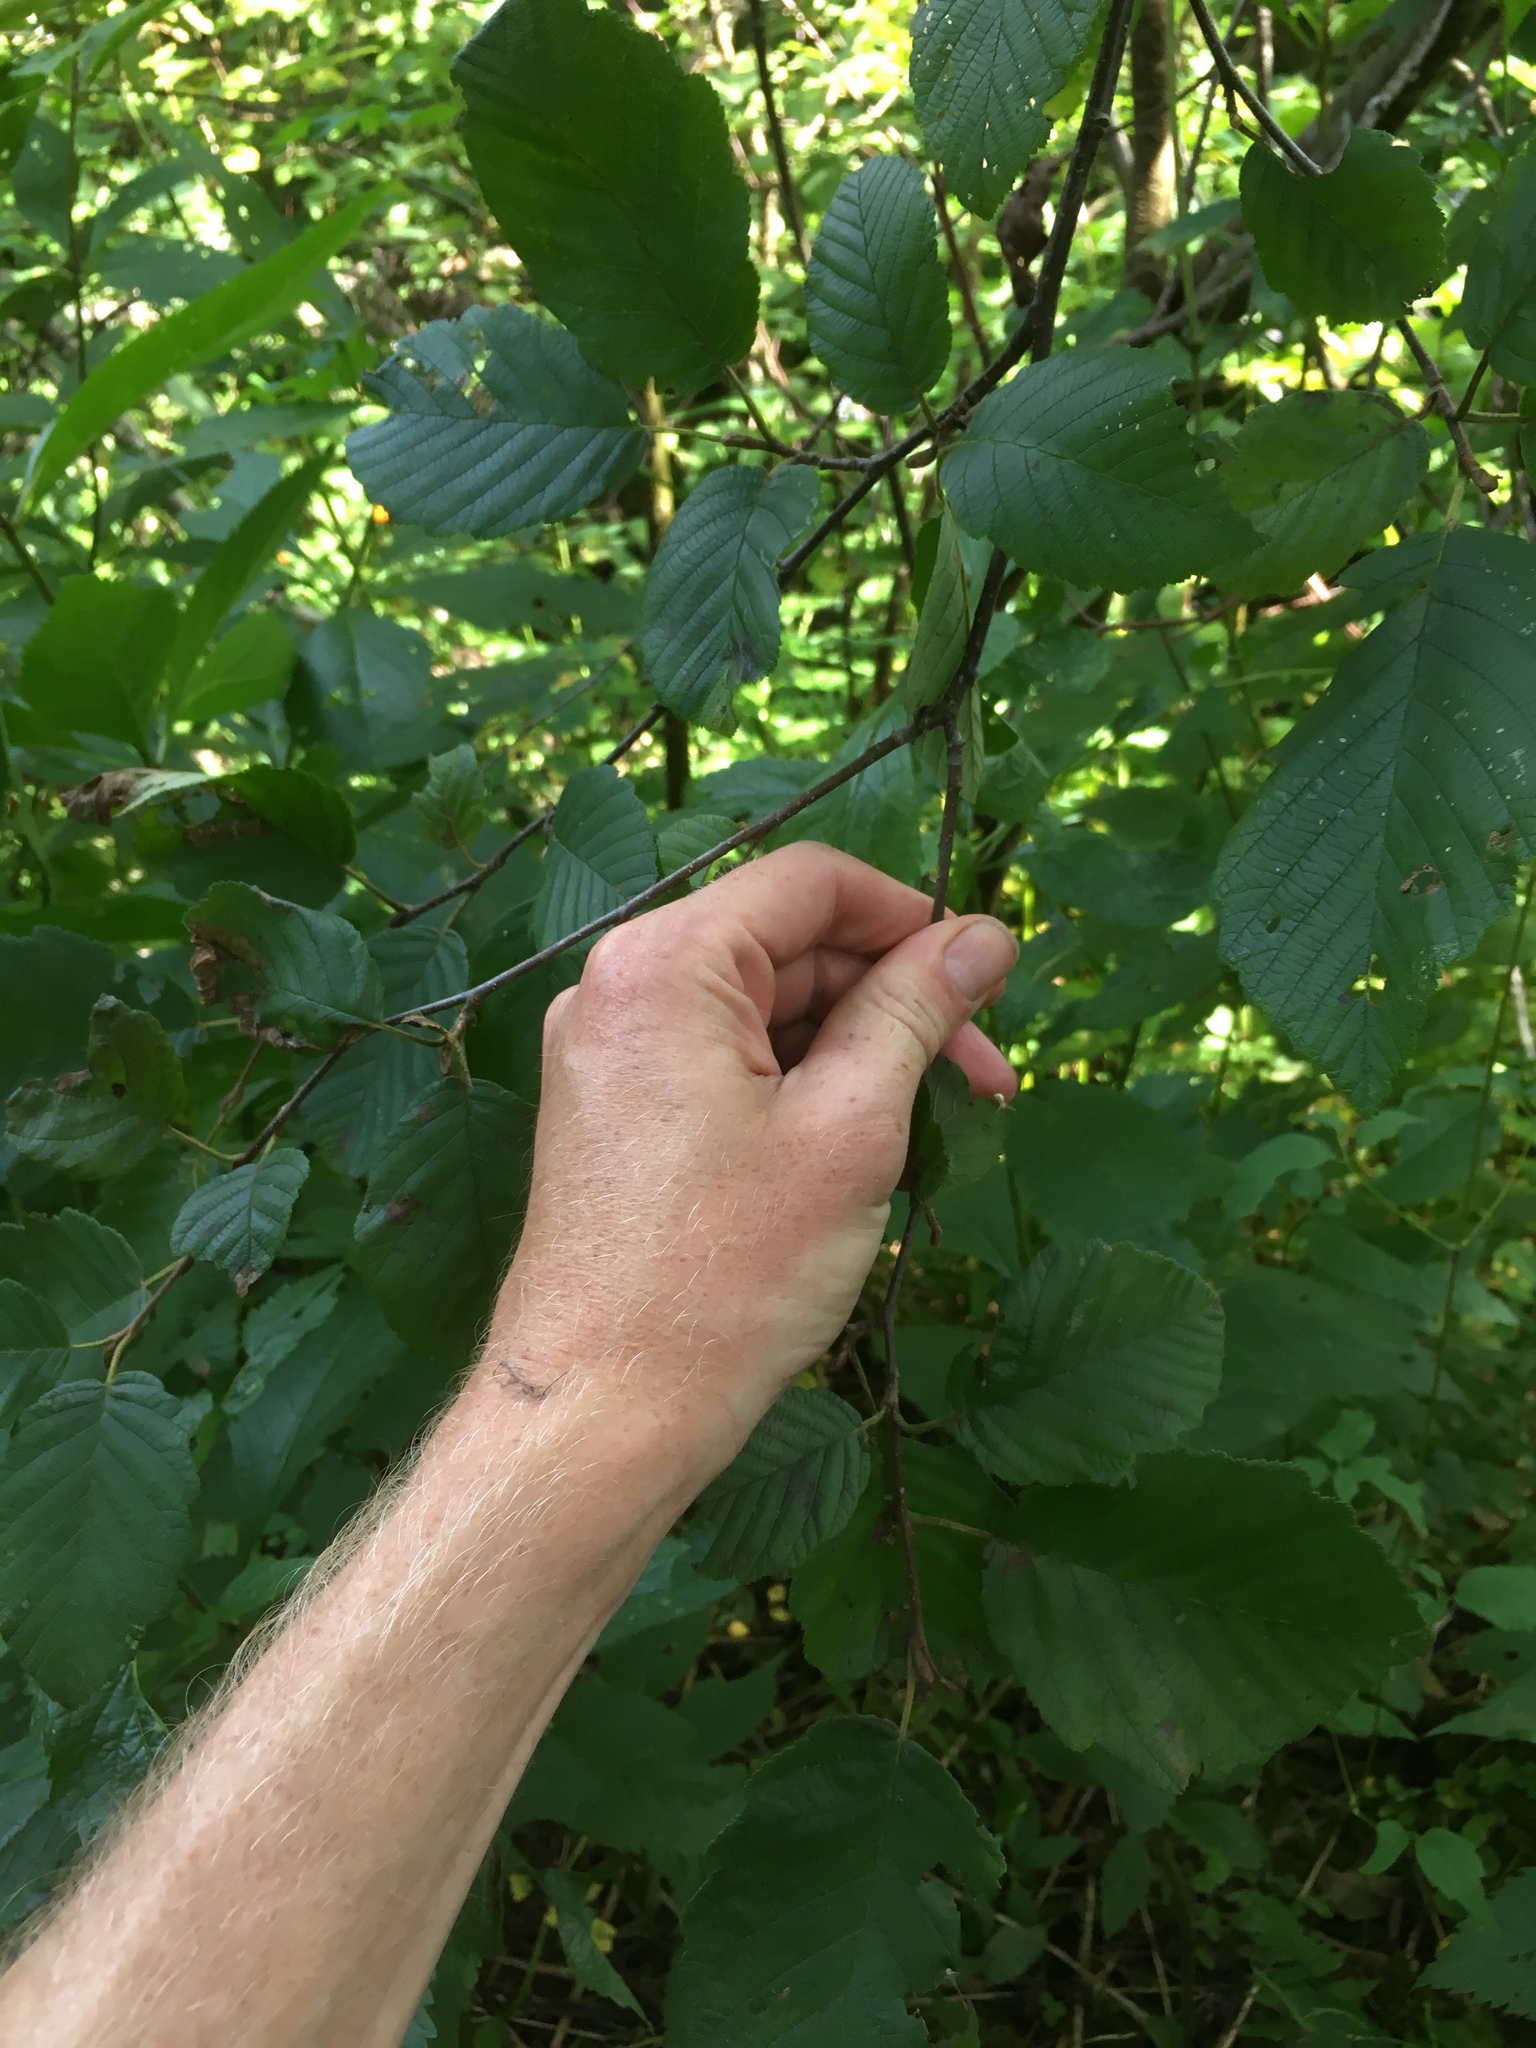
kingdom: Plantae
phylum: Tracheophyta
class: Magnoliopsida
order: Fagales
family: Betulaceae
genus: Alnus
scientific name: Alnus incana
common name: Grey alder
